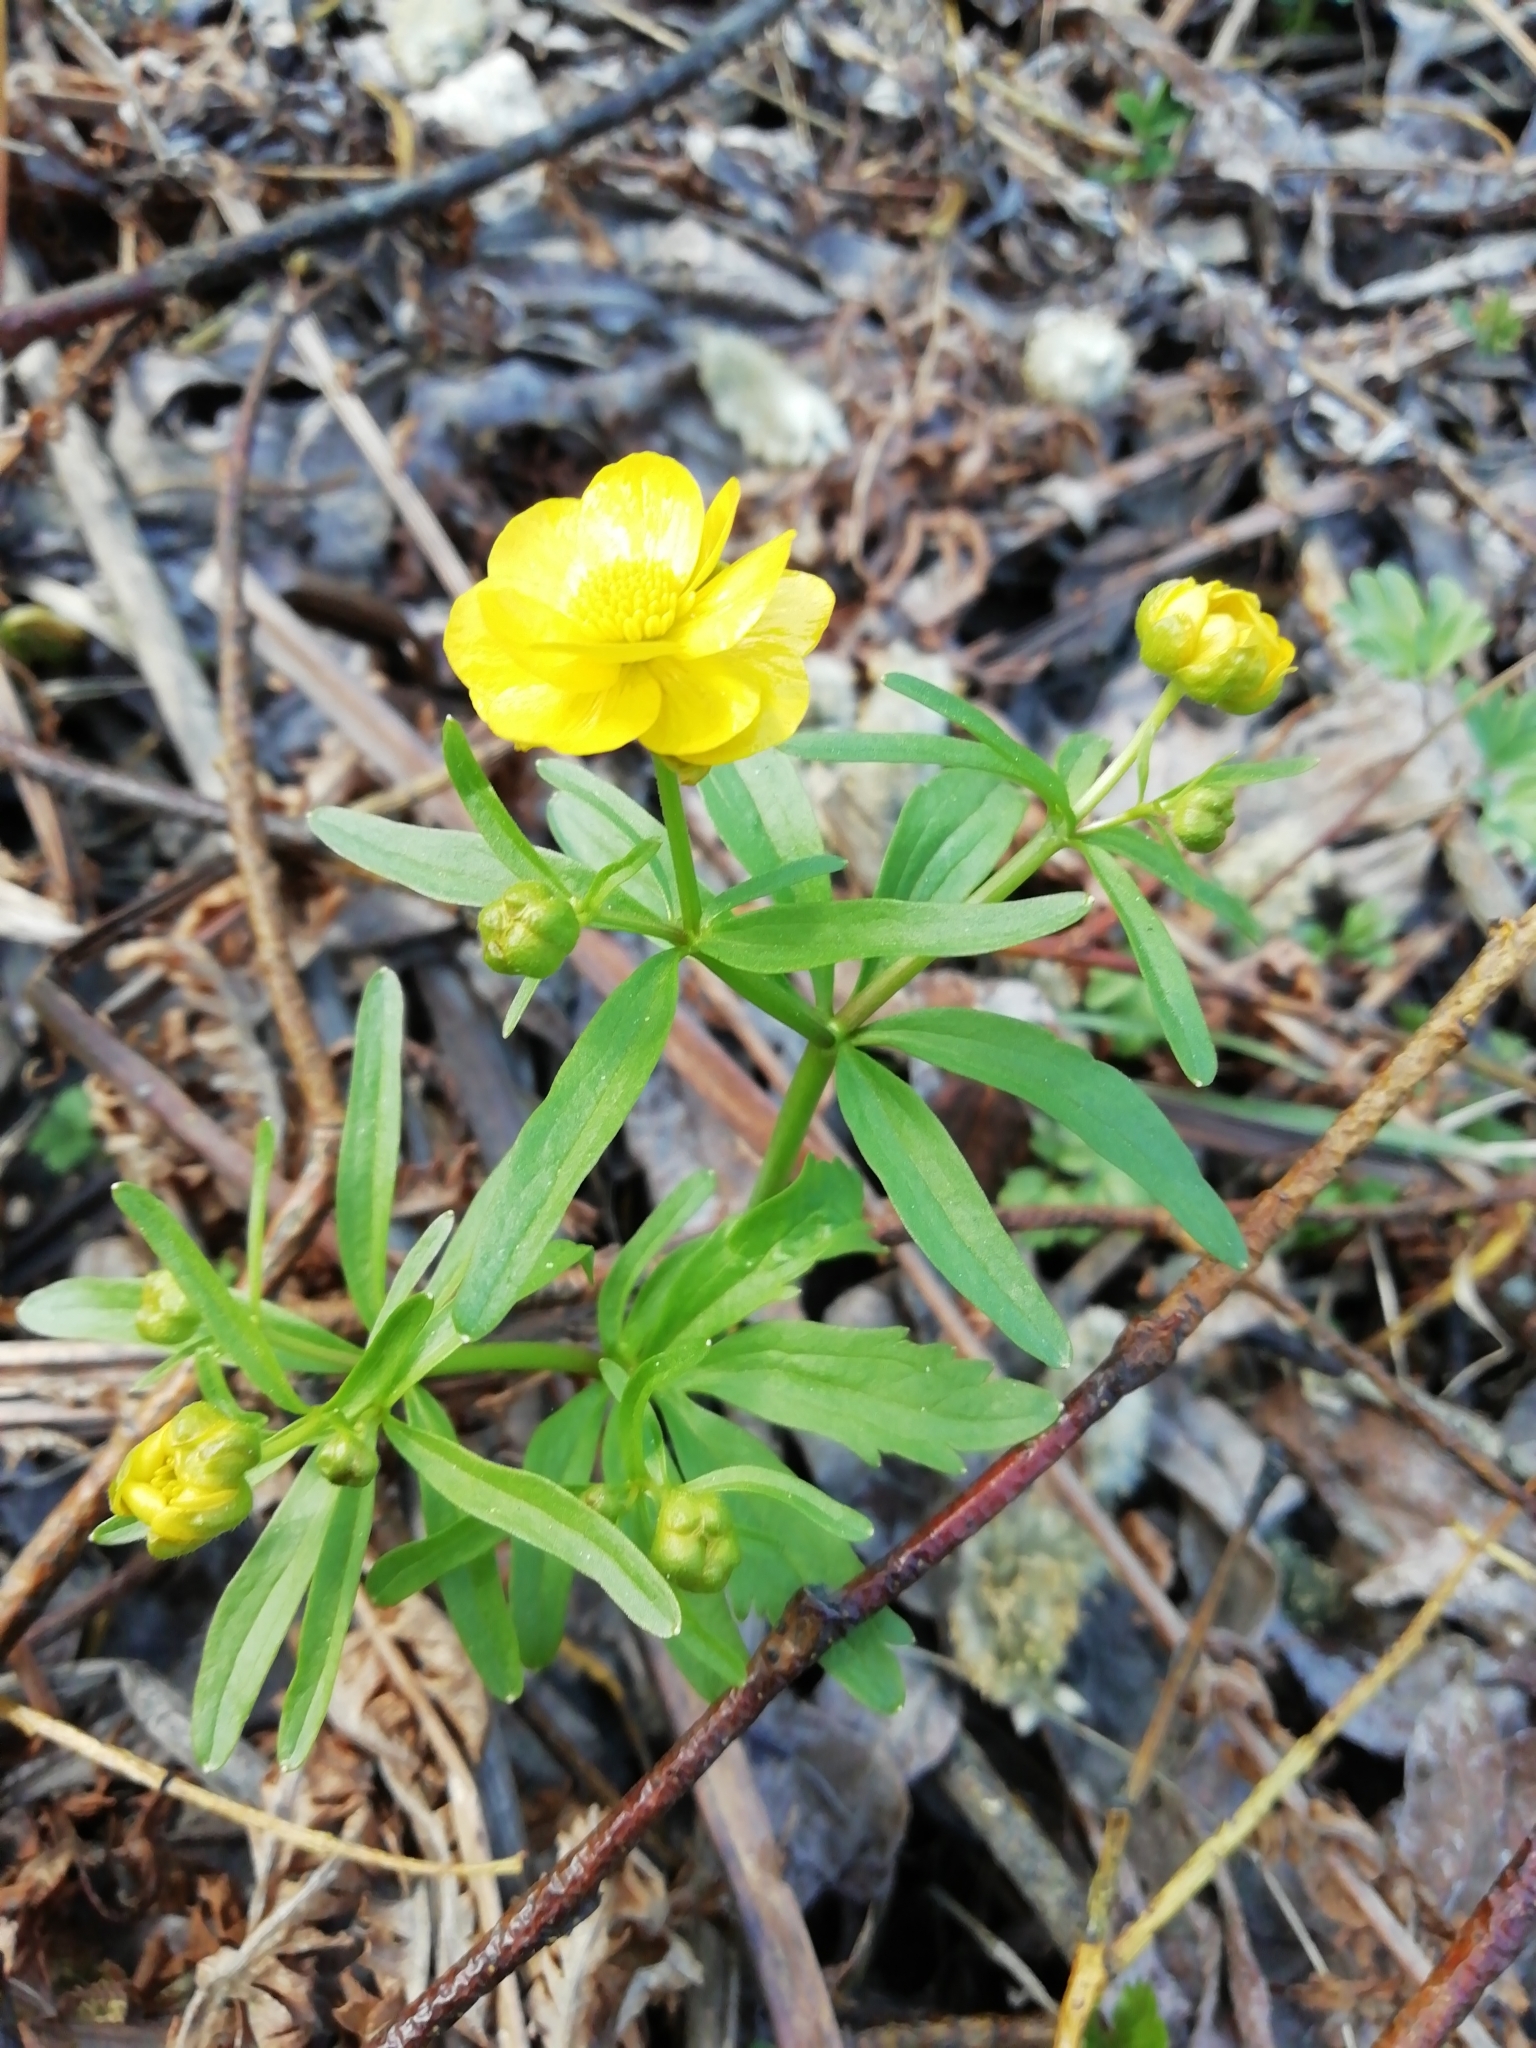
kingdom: Plantae
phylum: Tracheophyta
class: Magnoliopsida
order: Ranunculales
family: Ranunculaceae
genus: Ranunculus
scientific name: Ranunculus monophyllus
